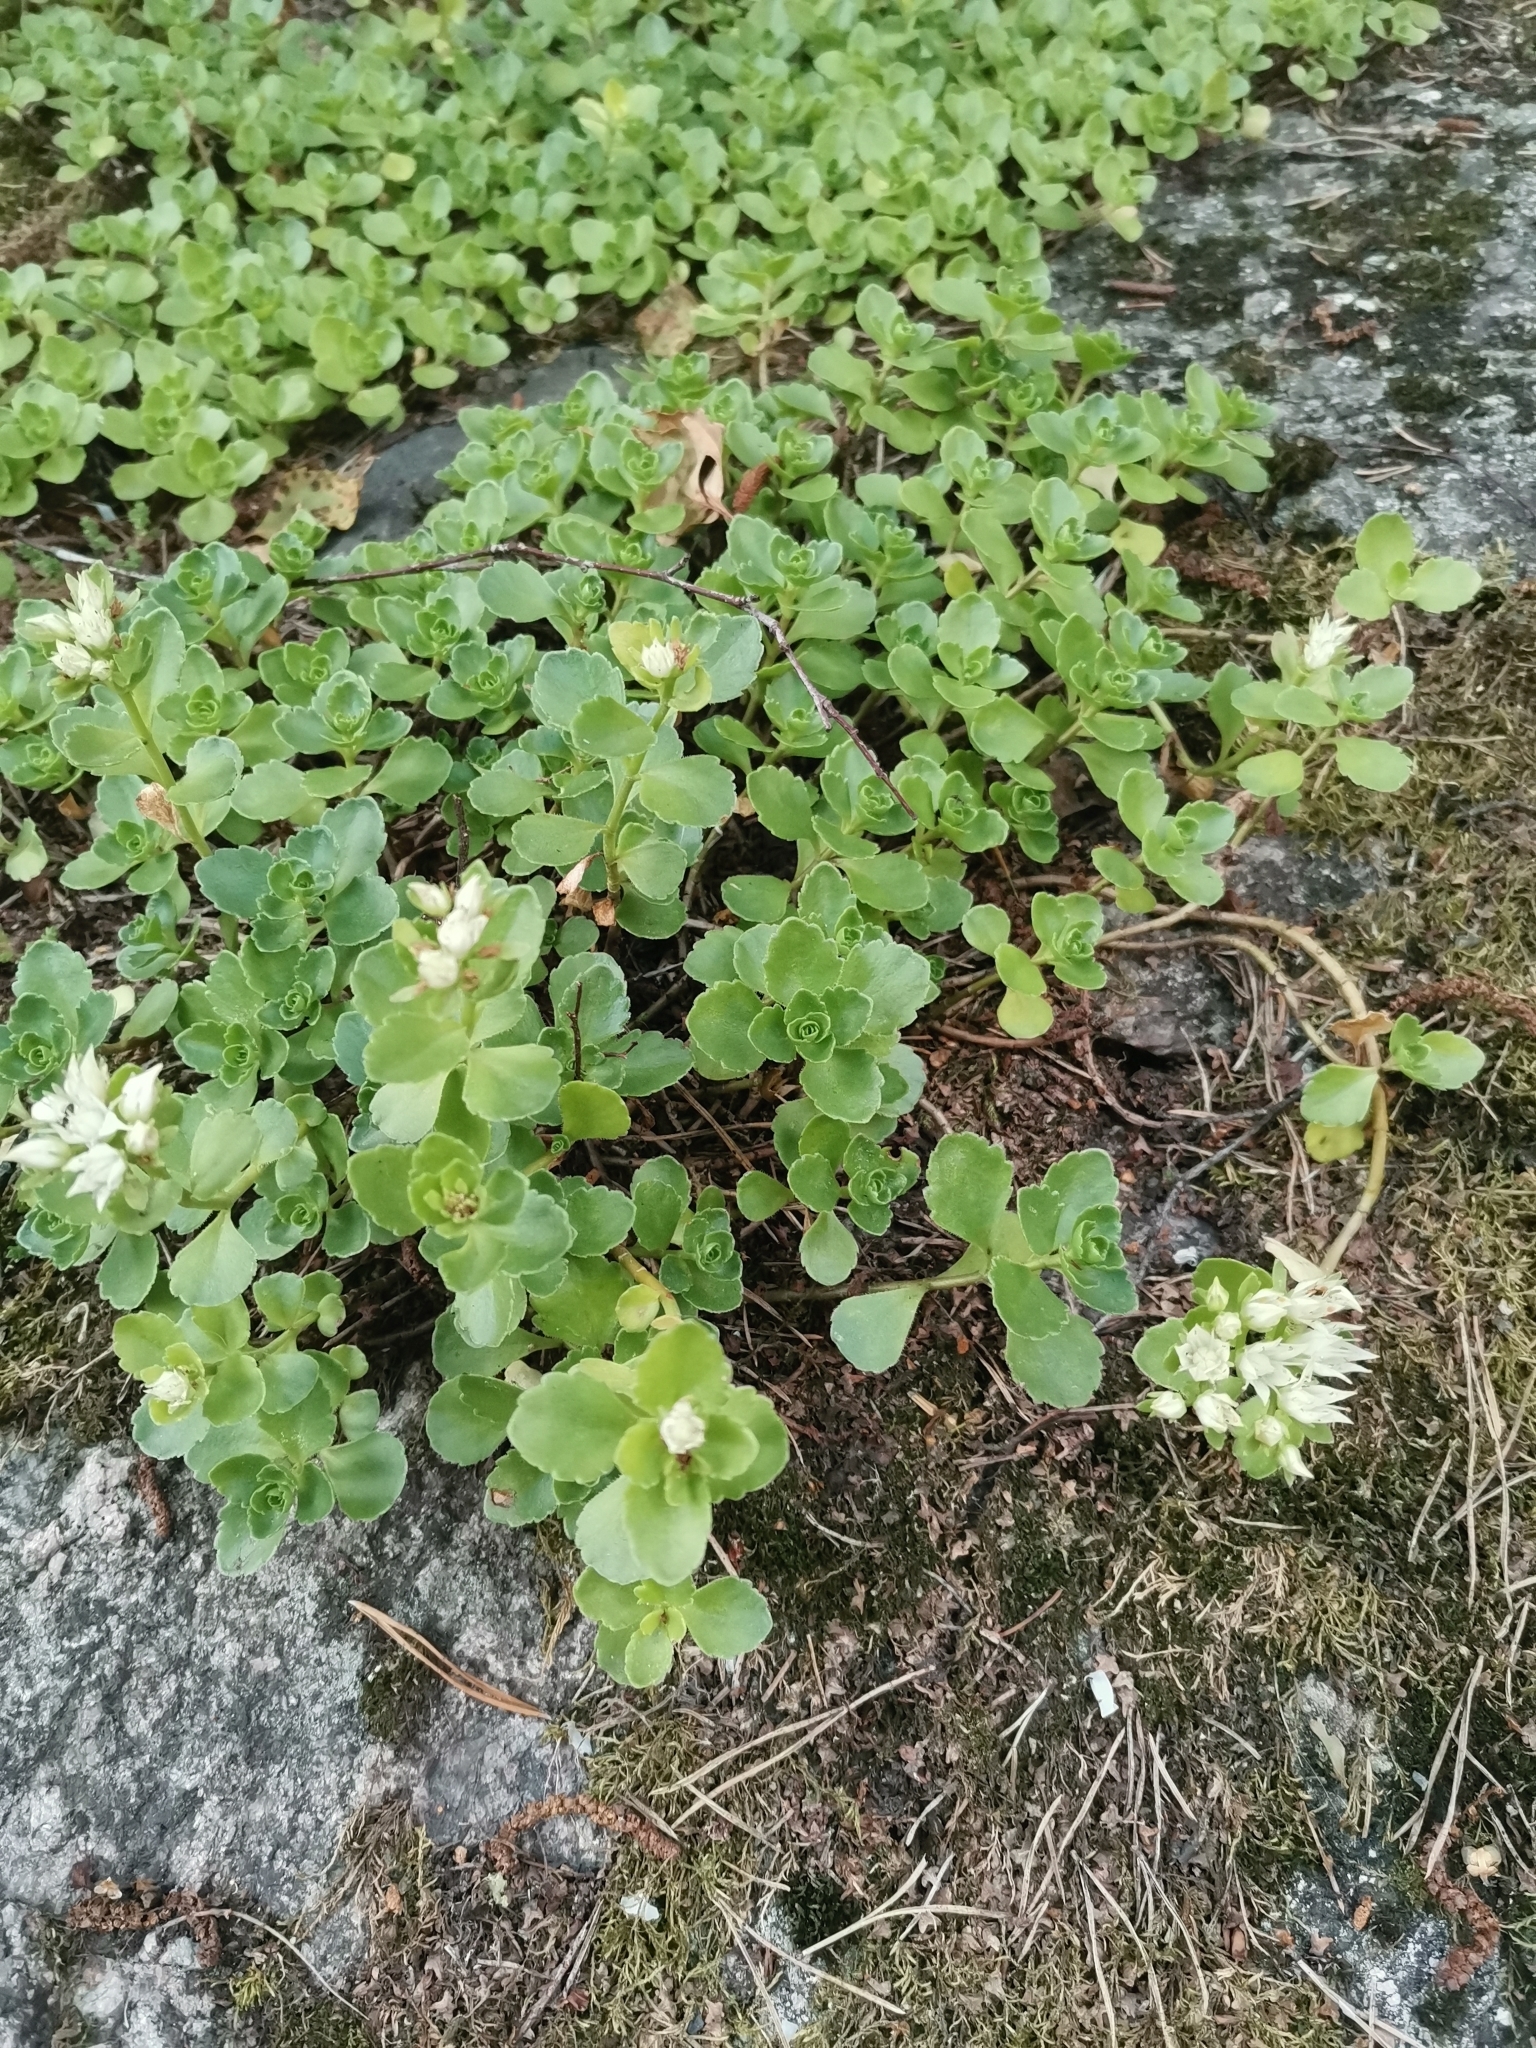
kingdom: Plantae
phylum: Tracheophyta
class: Magnoliopsida
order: Saxifragales
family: Crassulaceae
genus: Phedimus
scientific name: Phedimus spurius
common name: Caucasian stonecrop
